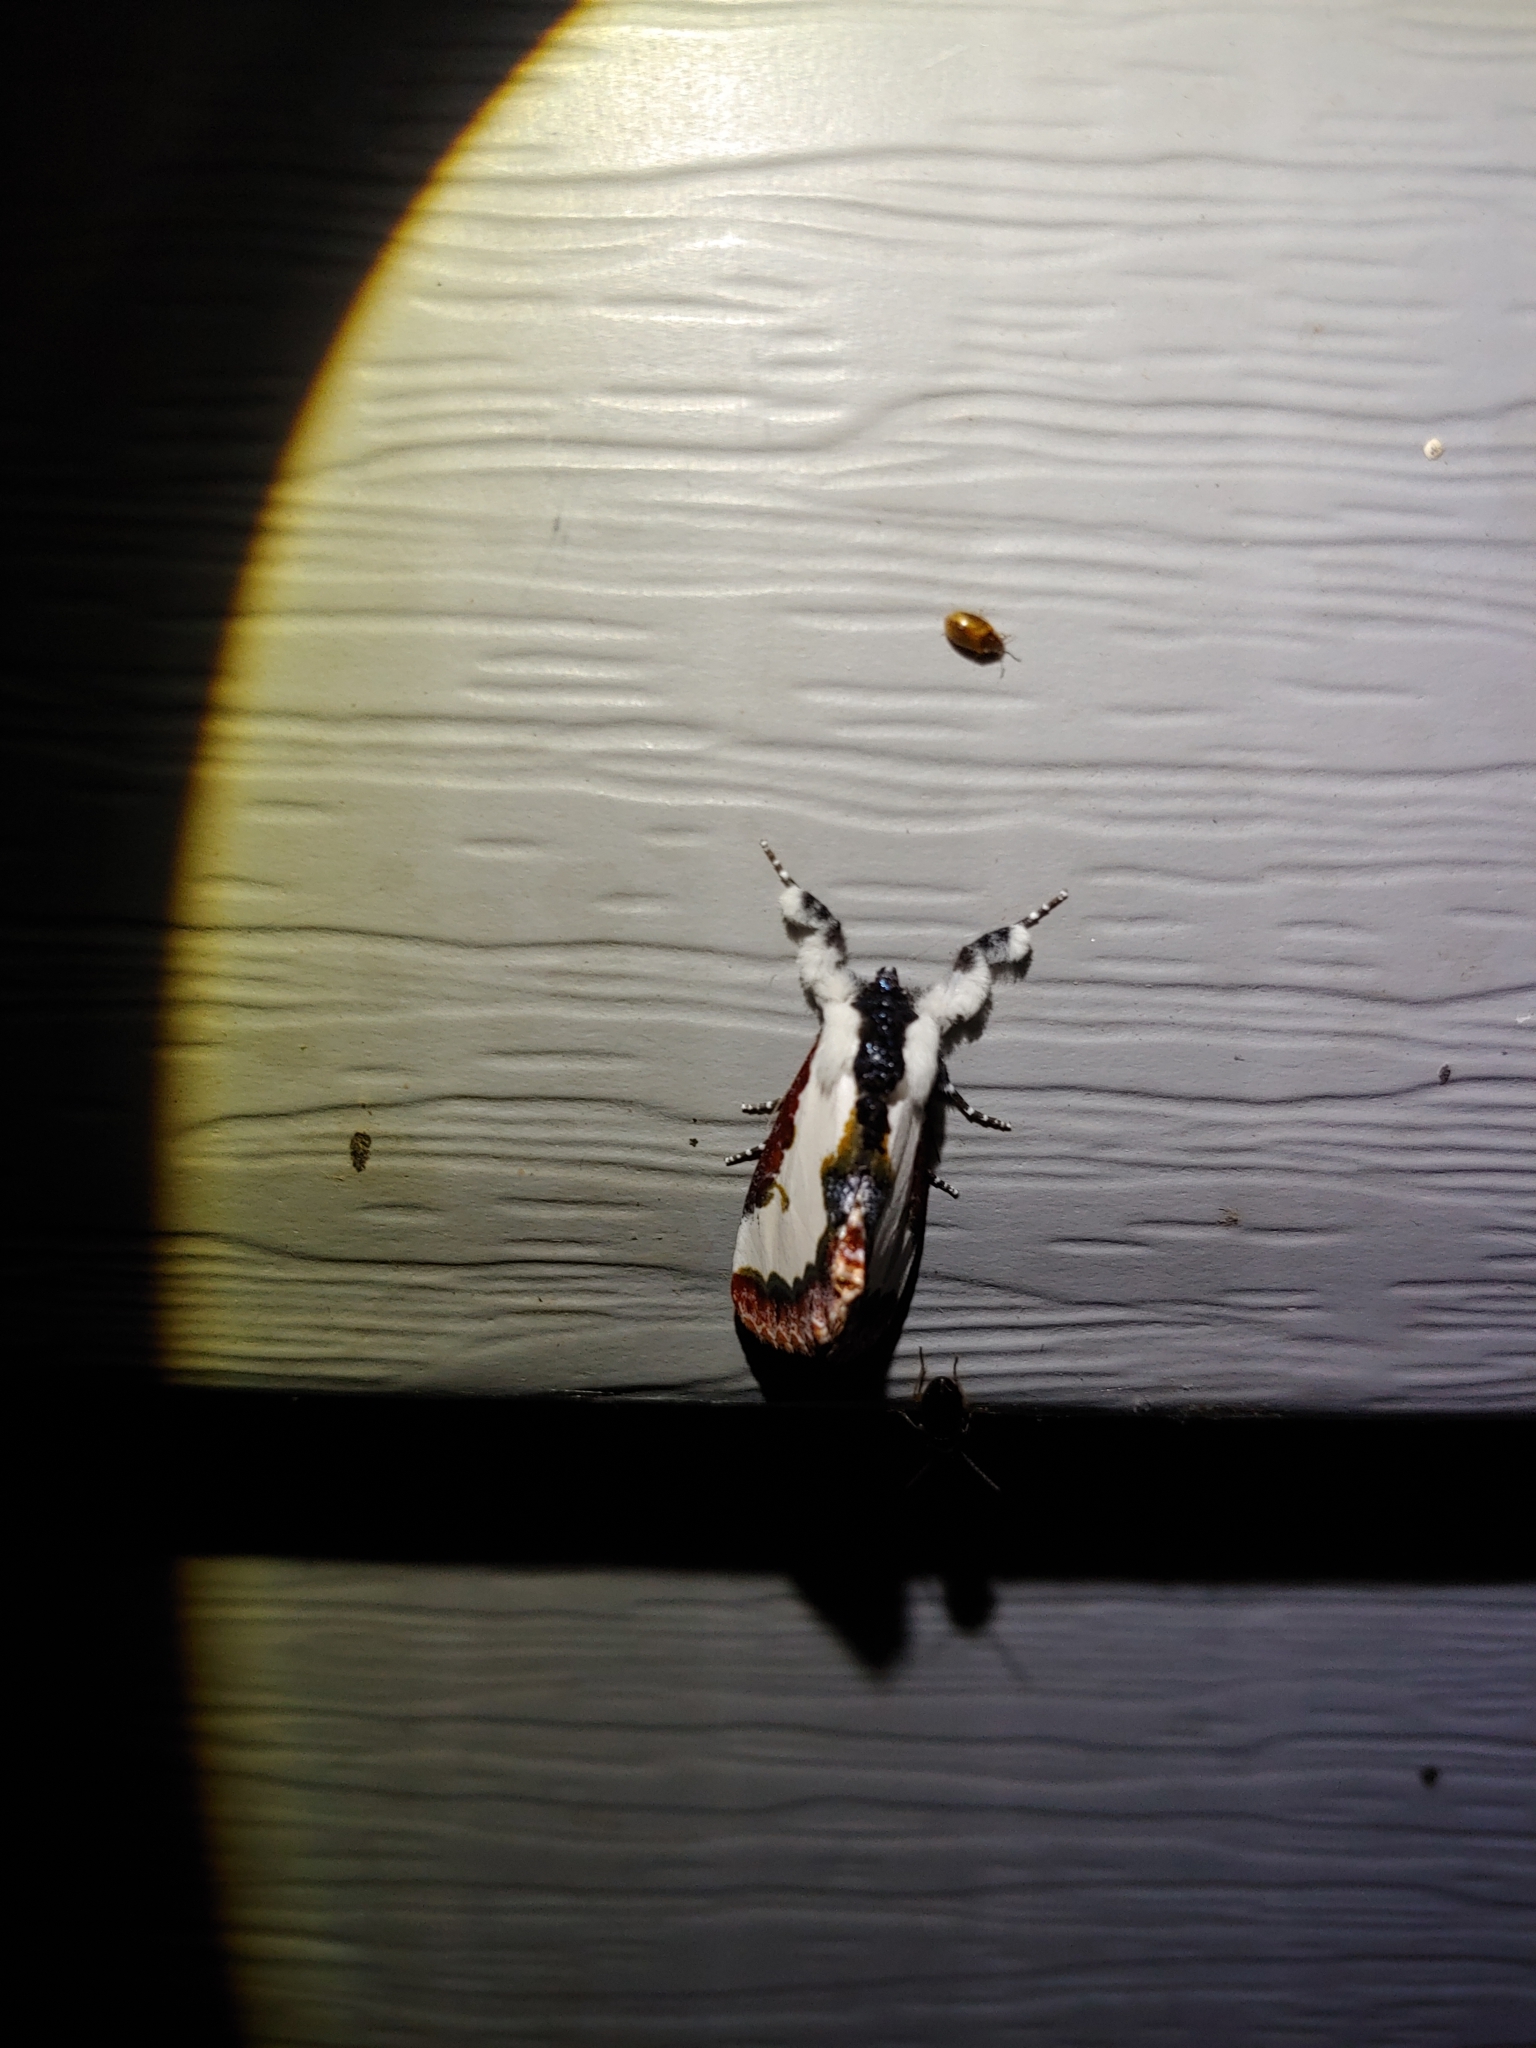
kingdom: Animalia
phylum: Arthropoda
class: Insecta
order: Lepidoptera
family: Noctuidae
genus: Eudryas
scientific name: Eudryas unio
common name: Pearly wood-nymph
